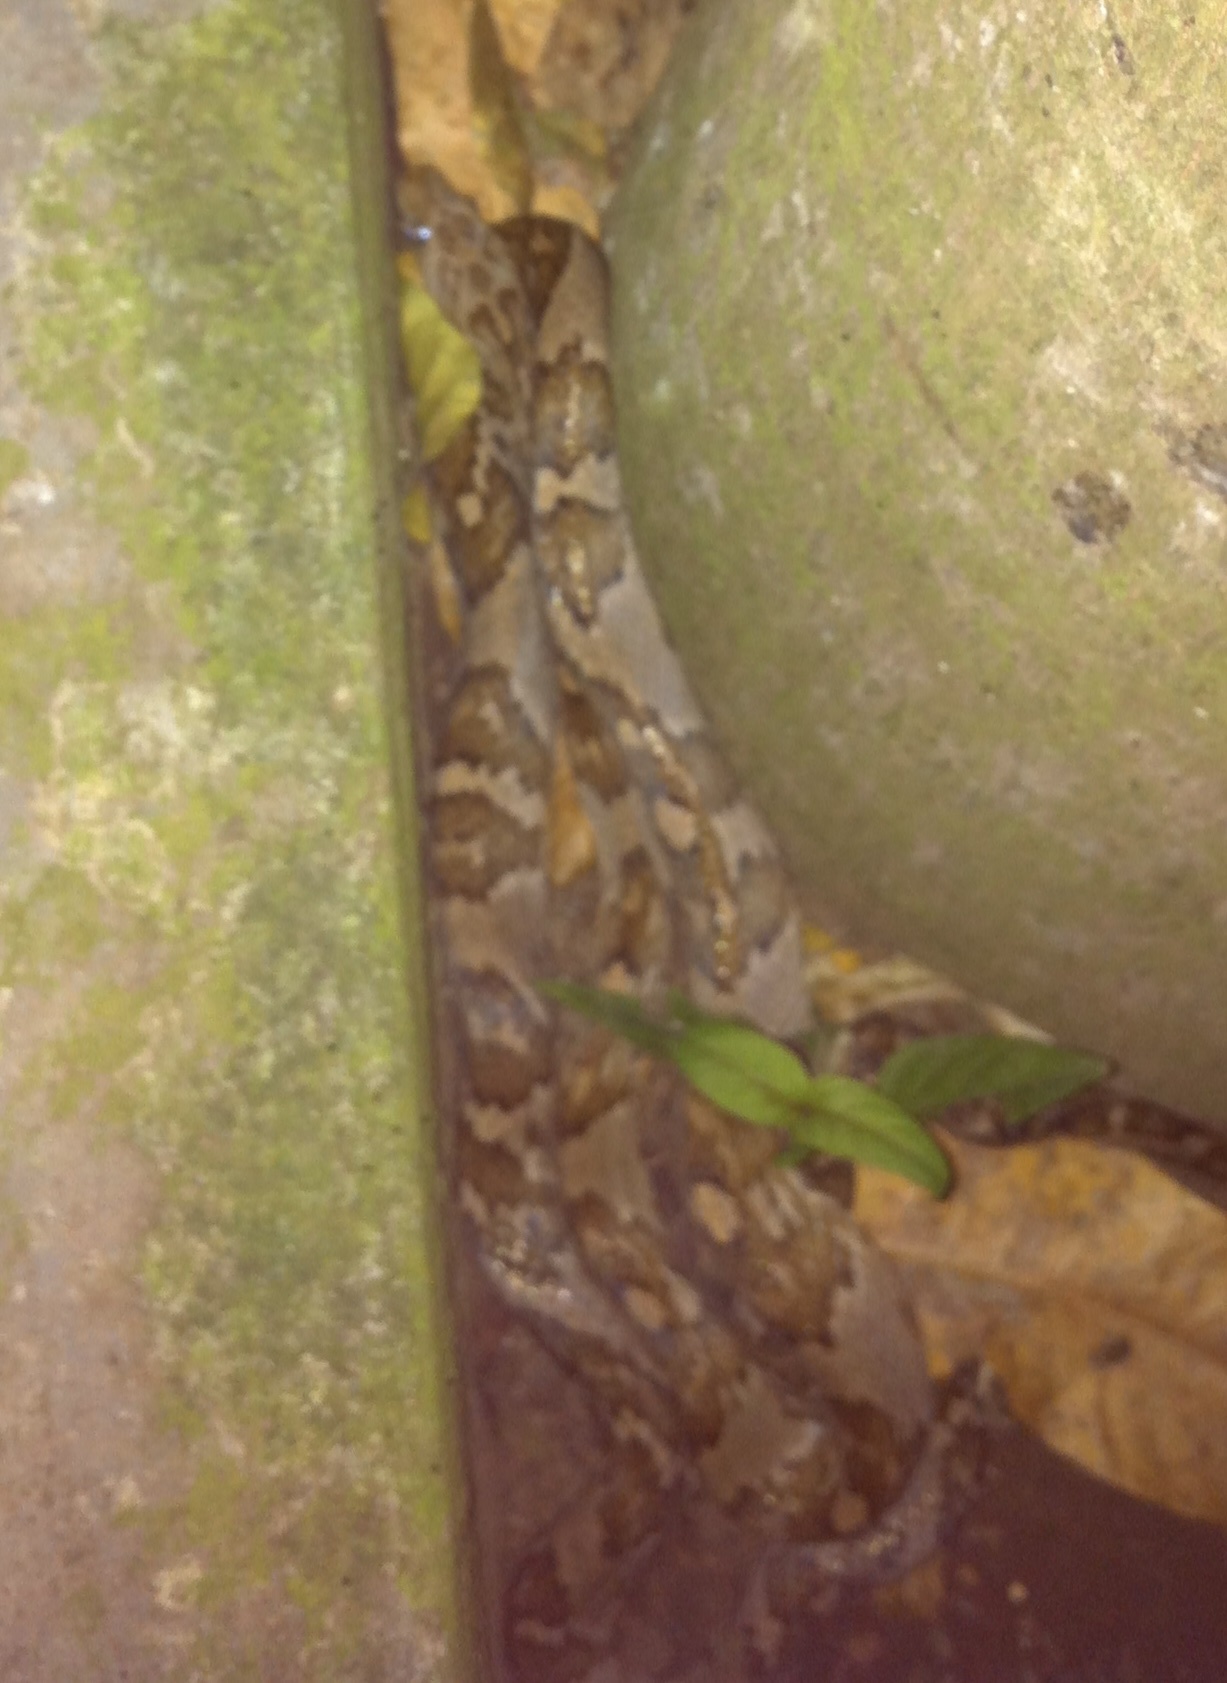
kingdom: Animalia
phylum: Chordata
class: Squamata
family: Colubridae
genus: Trimorphodon
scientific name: Trimorphodon quadruplex
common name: Central american lyre snake
